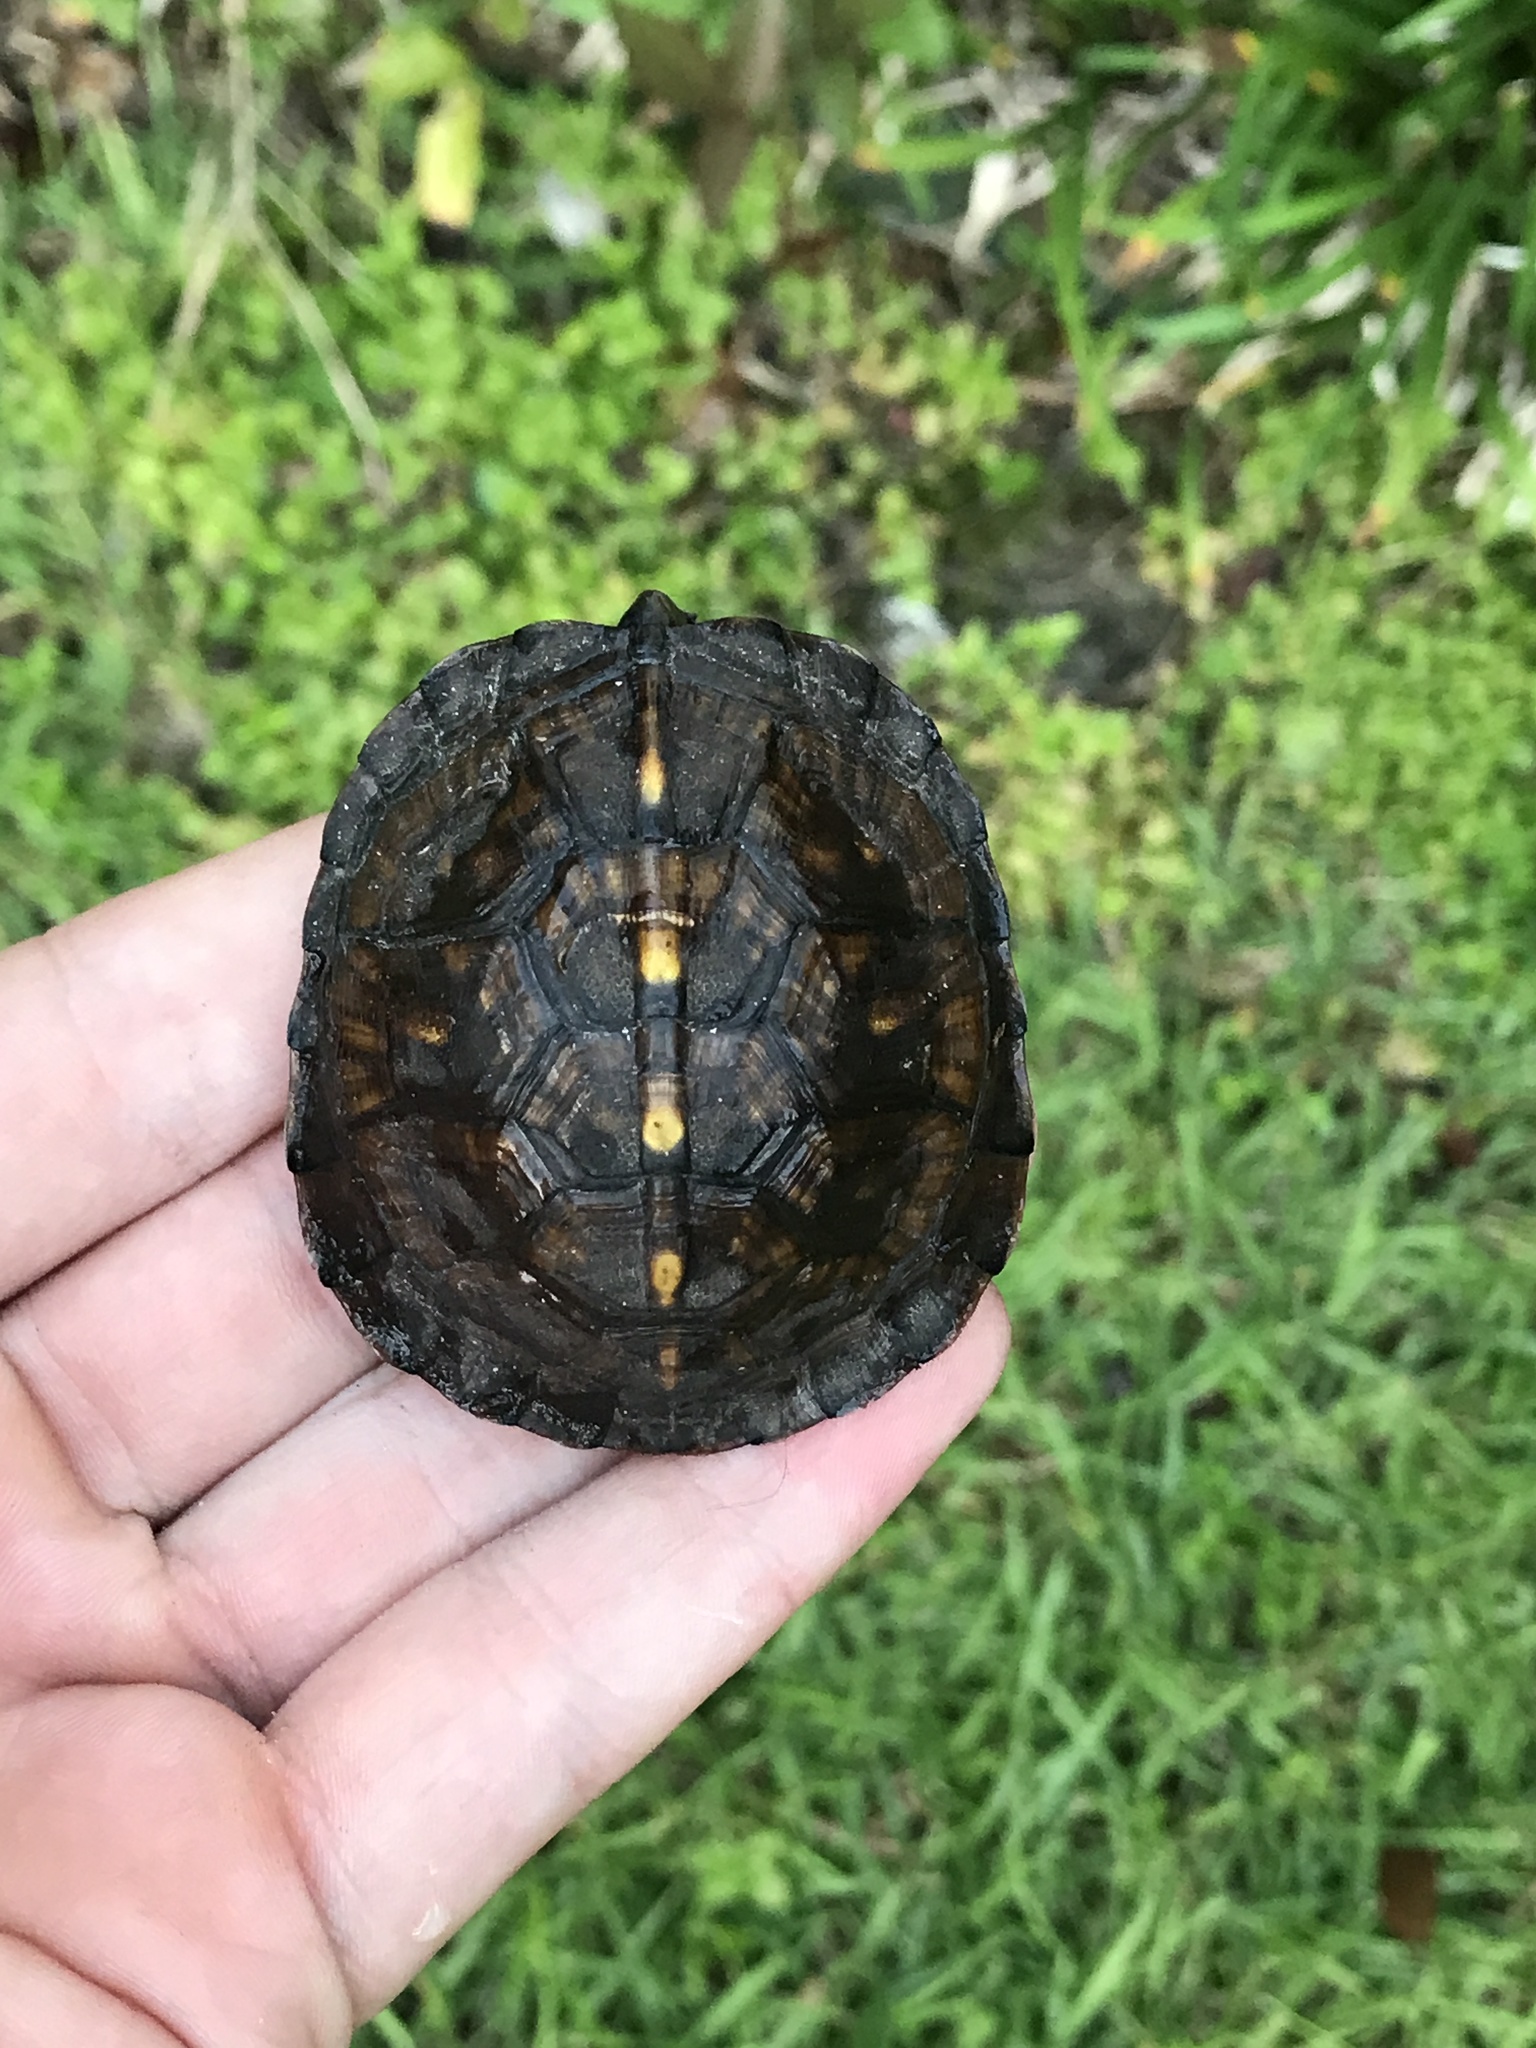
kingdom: Animalia
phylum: Chordata
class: Testudines
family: Emydidae
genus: Terrapene
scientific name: Terrapene carolina
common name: Common box turtle
